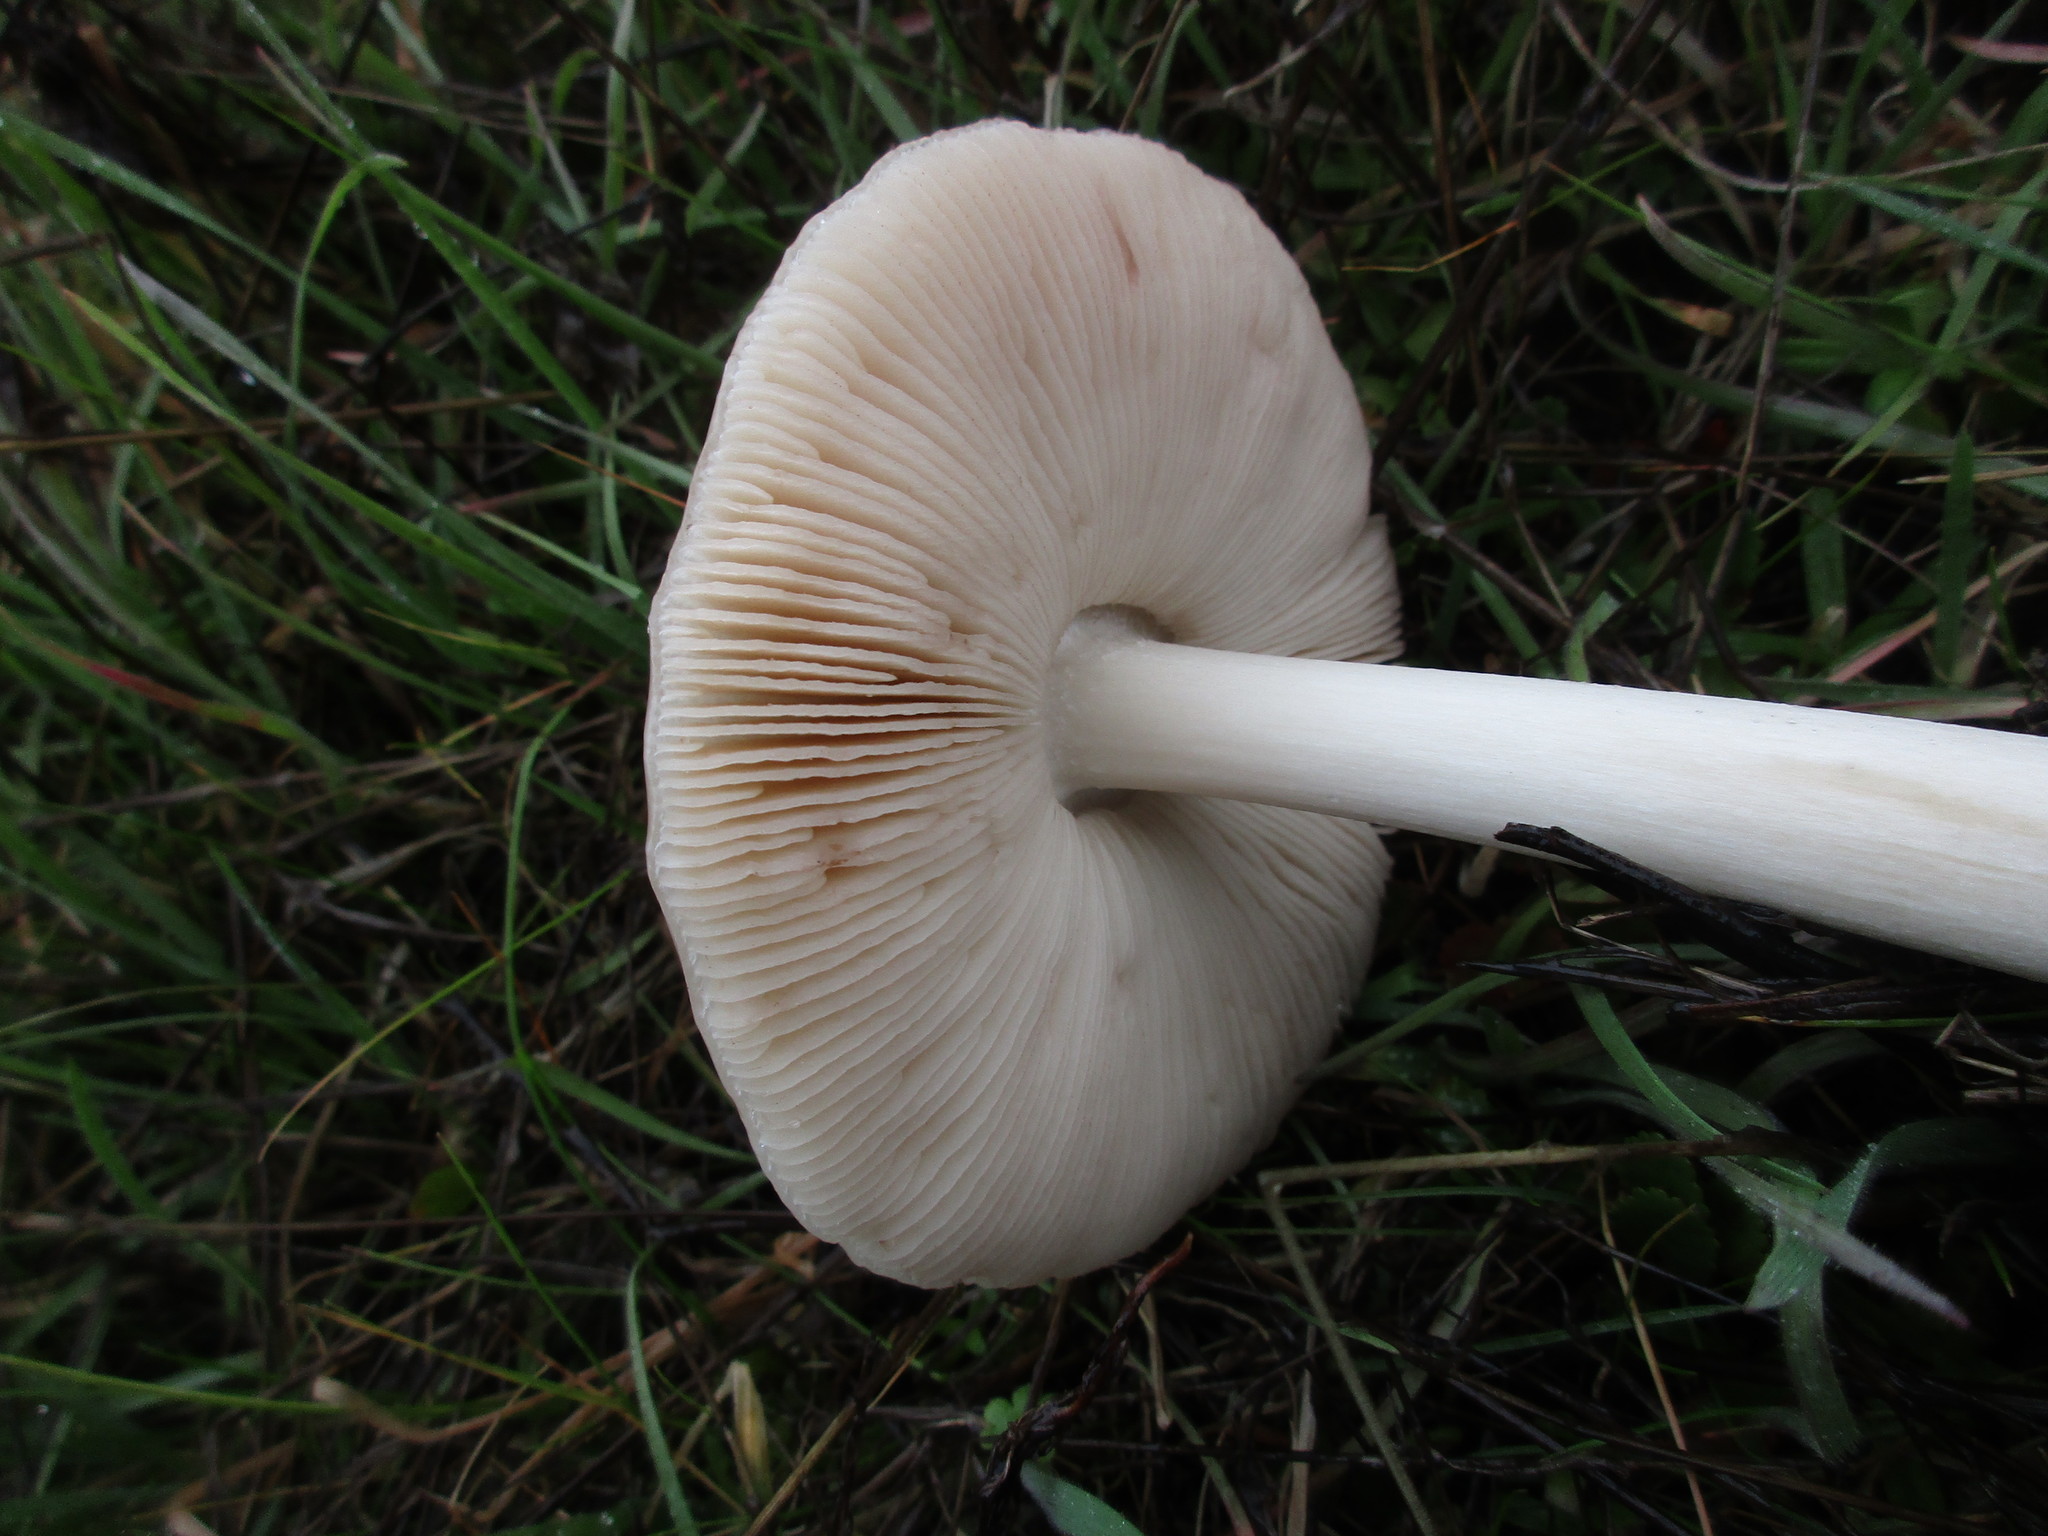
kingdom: Fungi
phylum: Basidiomycota
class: Agaricomycetes
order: Agaricales
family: Pluteaceae
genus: Volvopluteus
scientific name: Volvopluteus gloiocephalus
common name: Stubble rosegill
